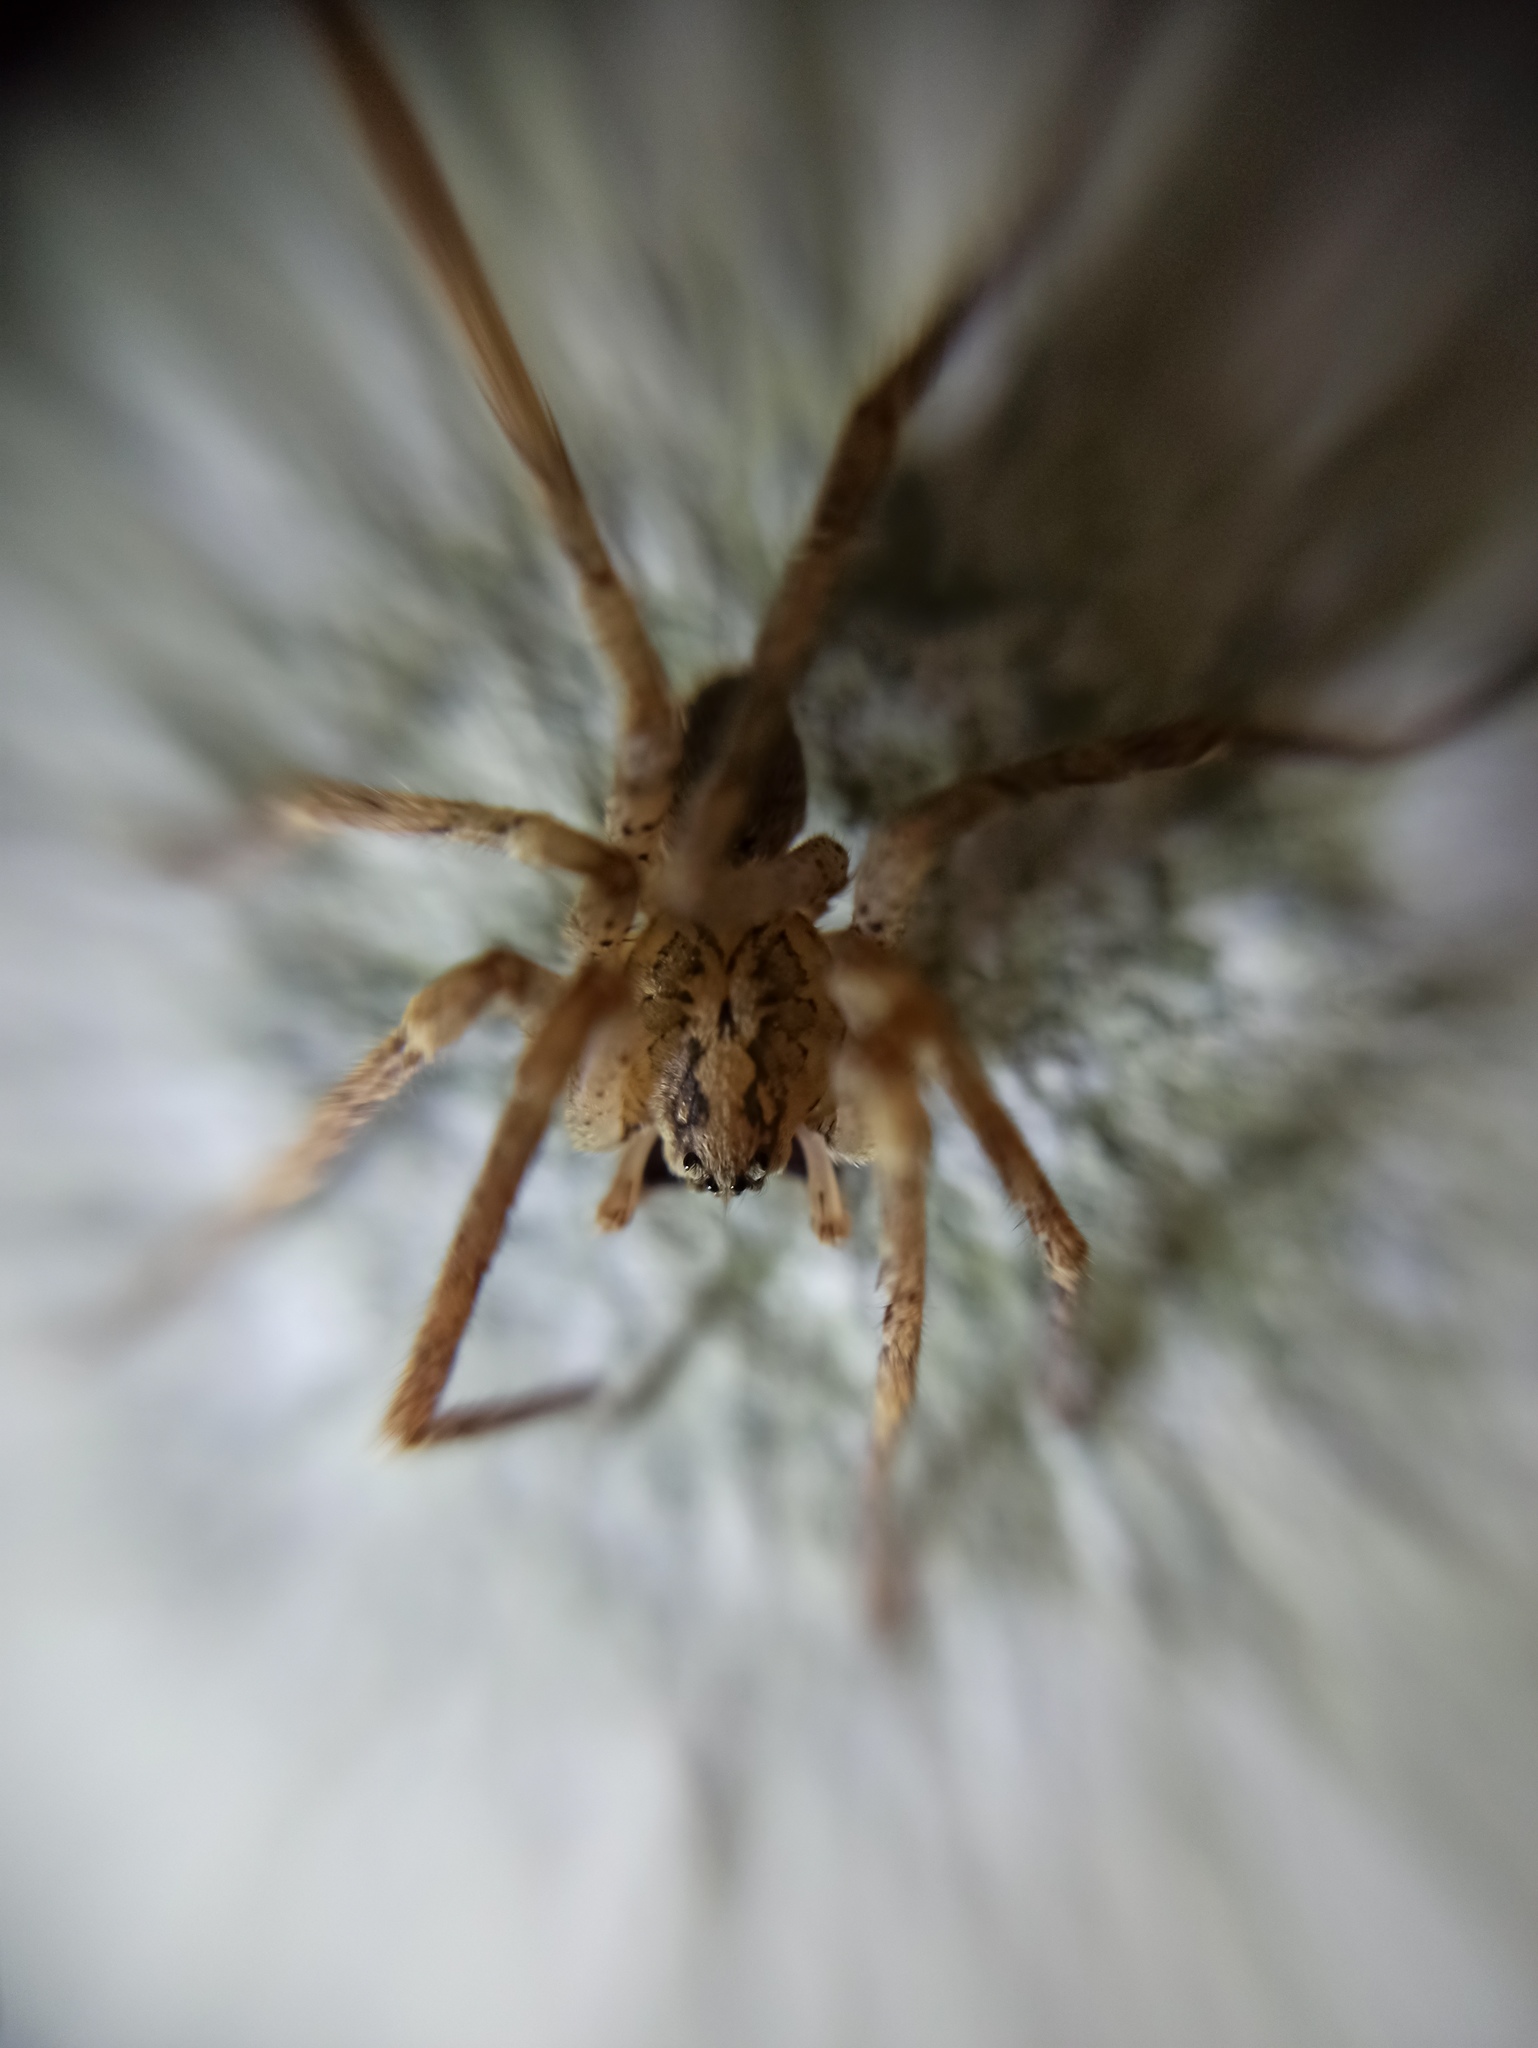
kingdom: Animalia
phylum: Arthropoda
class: Arachnida
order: Araneae
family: Zoropsidae
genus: Zoropsis
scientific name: Zoropsis spinimana
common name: Zoropsid spider
